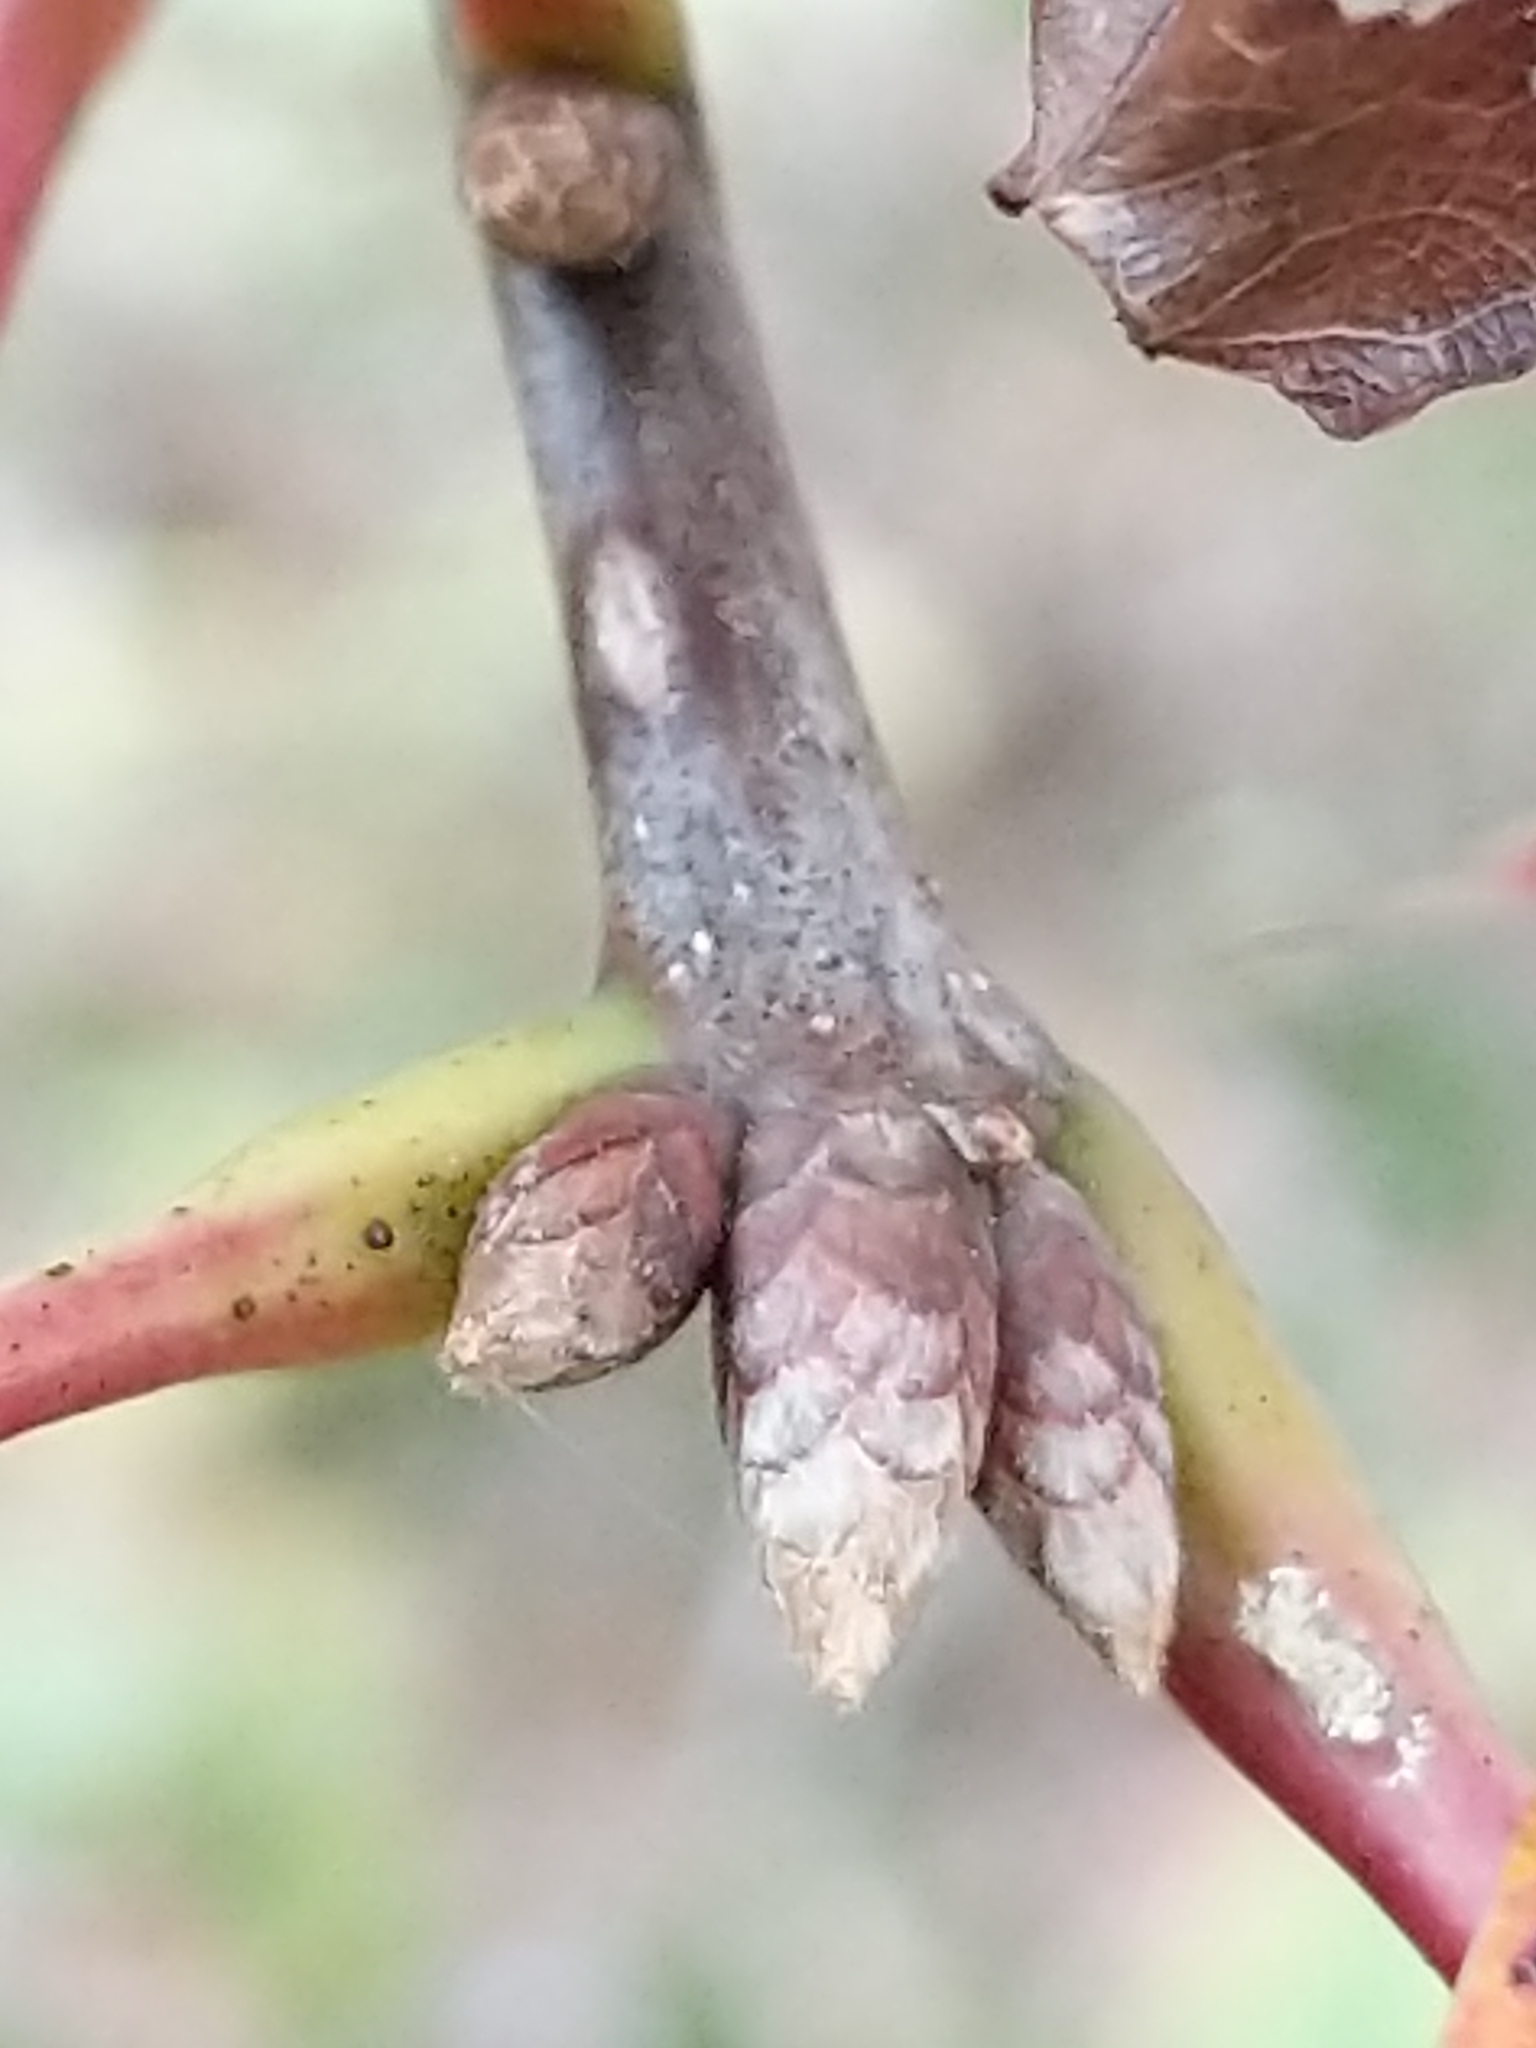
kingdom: Plantae
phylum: Tracheophyta
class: Magnoliopsida
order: Fagales
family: Fagaceae
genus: Quercus
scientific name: Quercus coccinea
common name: Scarlet oak
